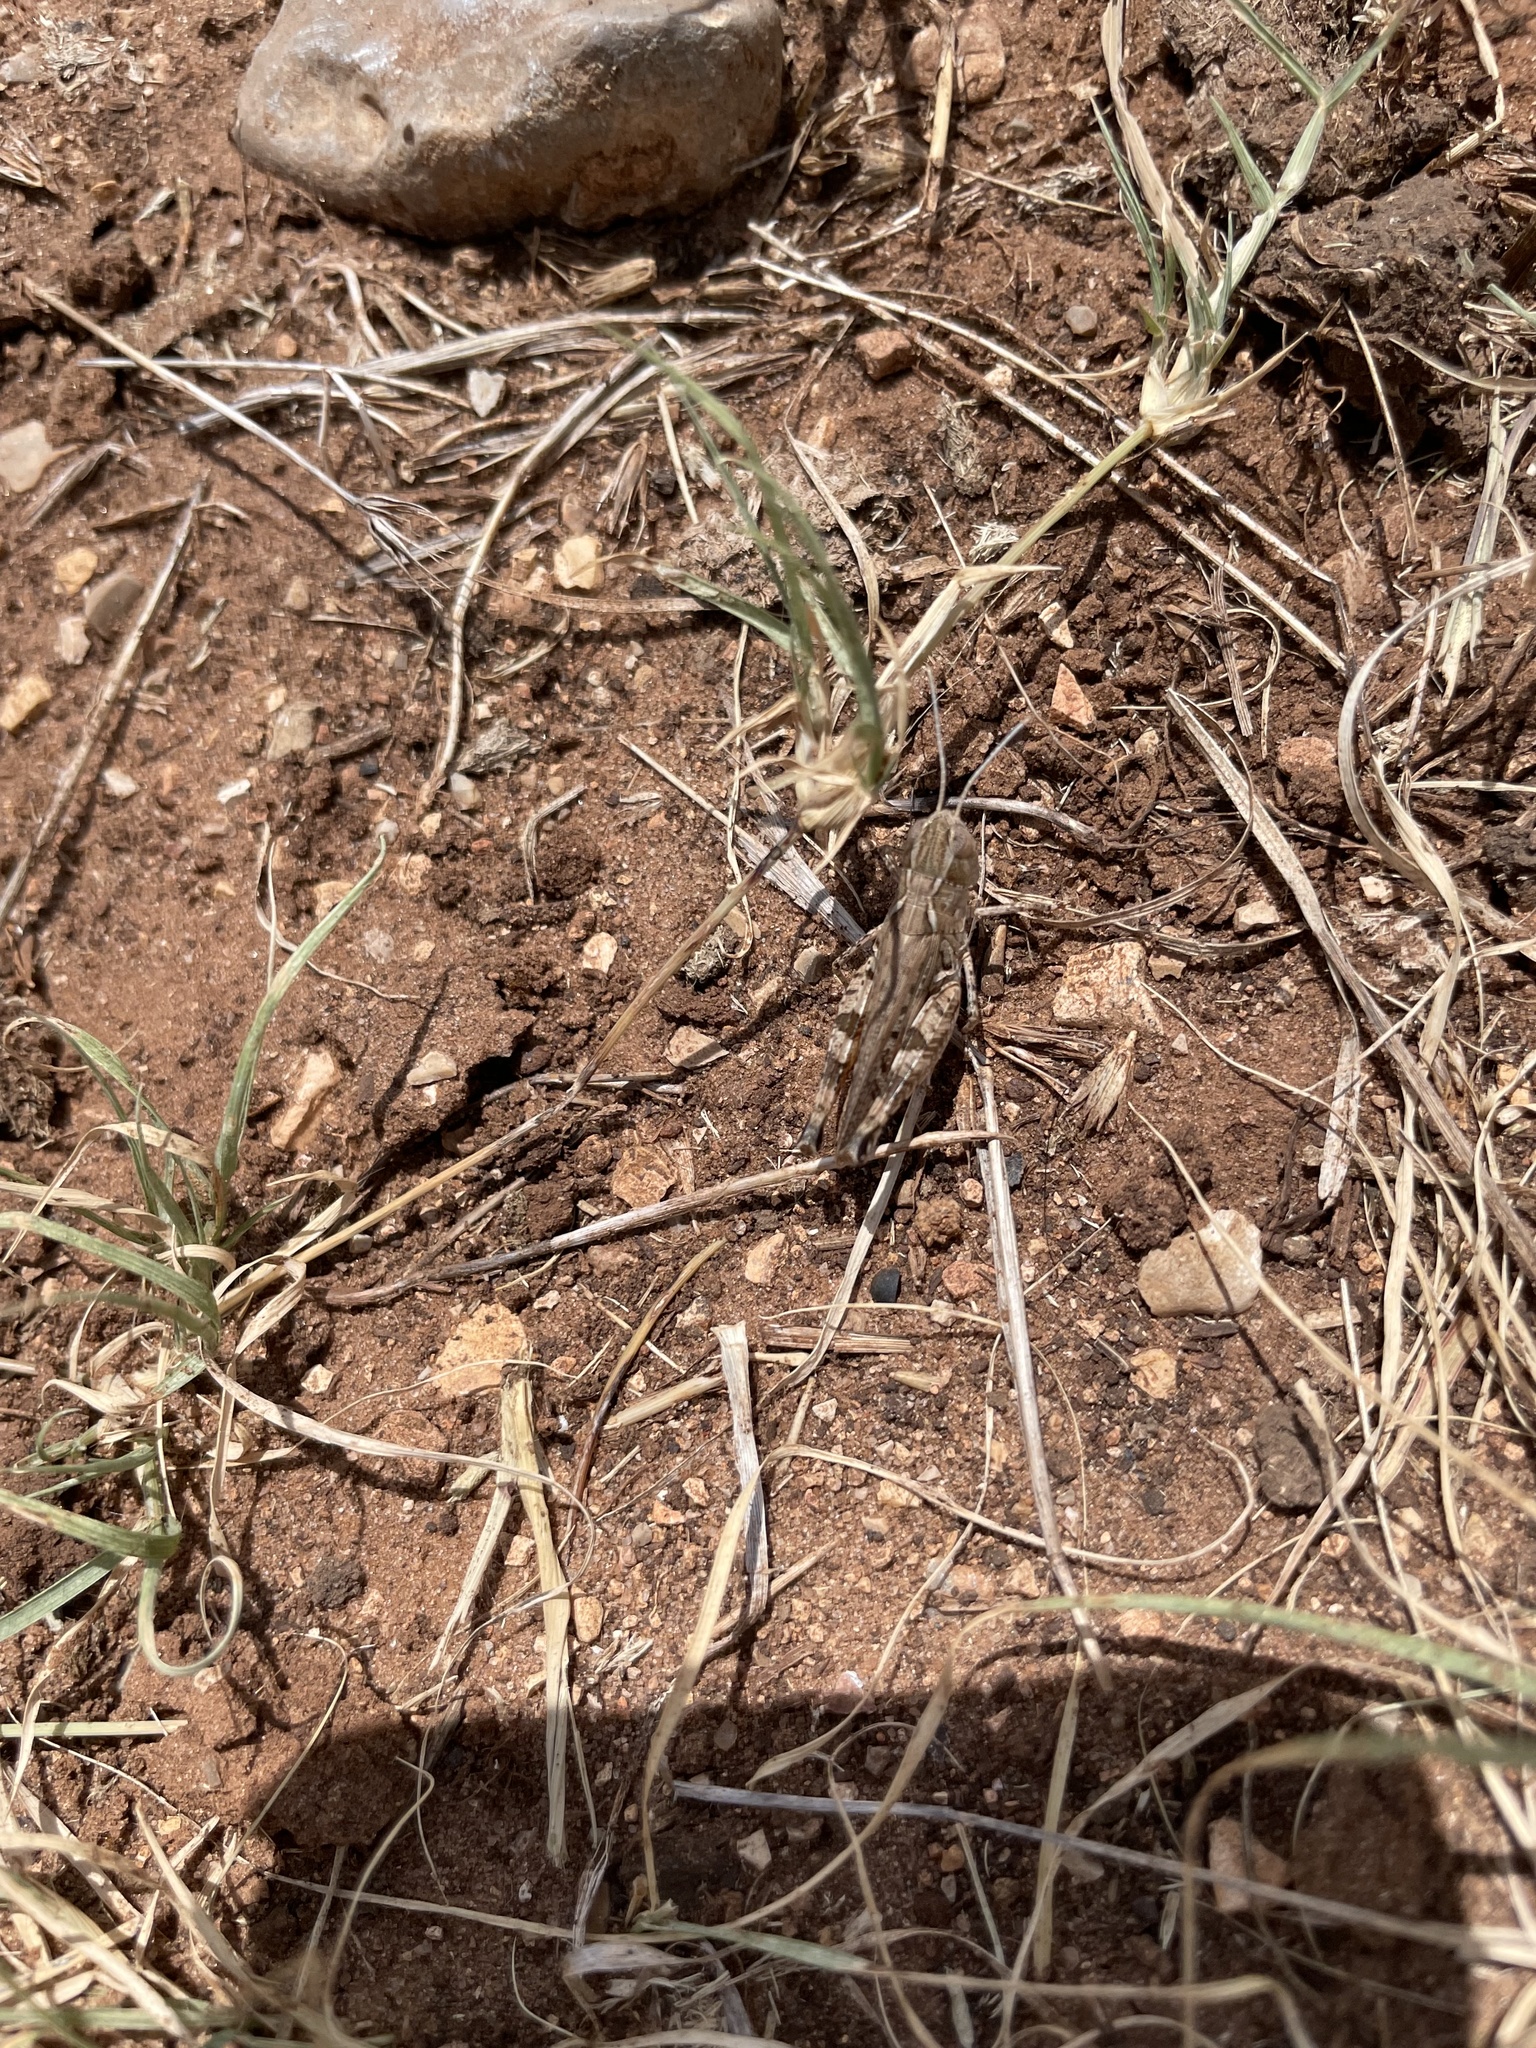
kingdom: Animalia
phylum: Arthropoda
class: Insecta
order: Orthoptera
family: Acrididae
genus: Ageneotettix
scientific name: Ageneotettix deorum
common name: White-whiskered grasshopper
